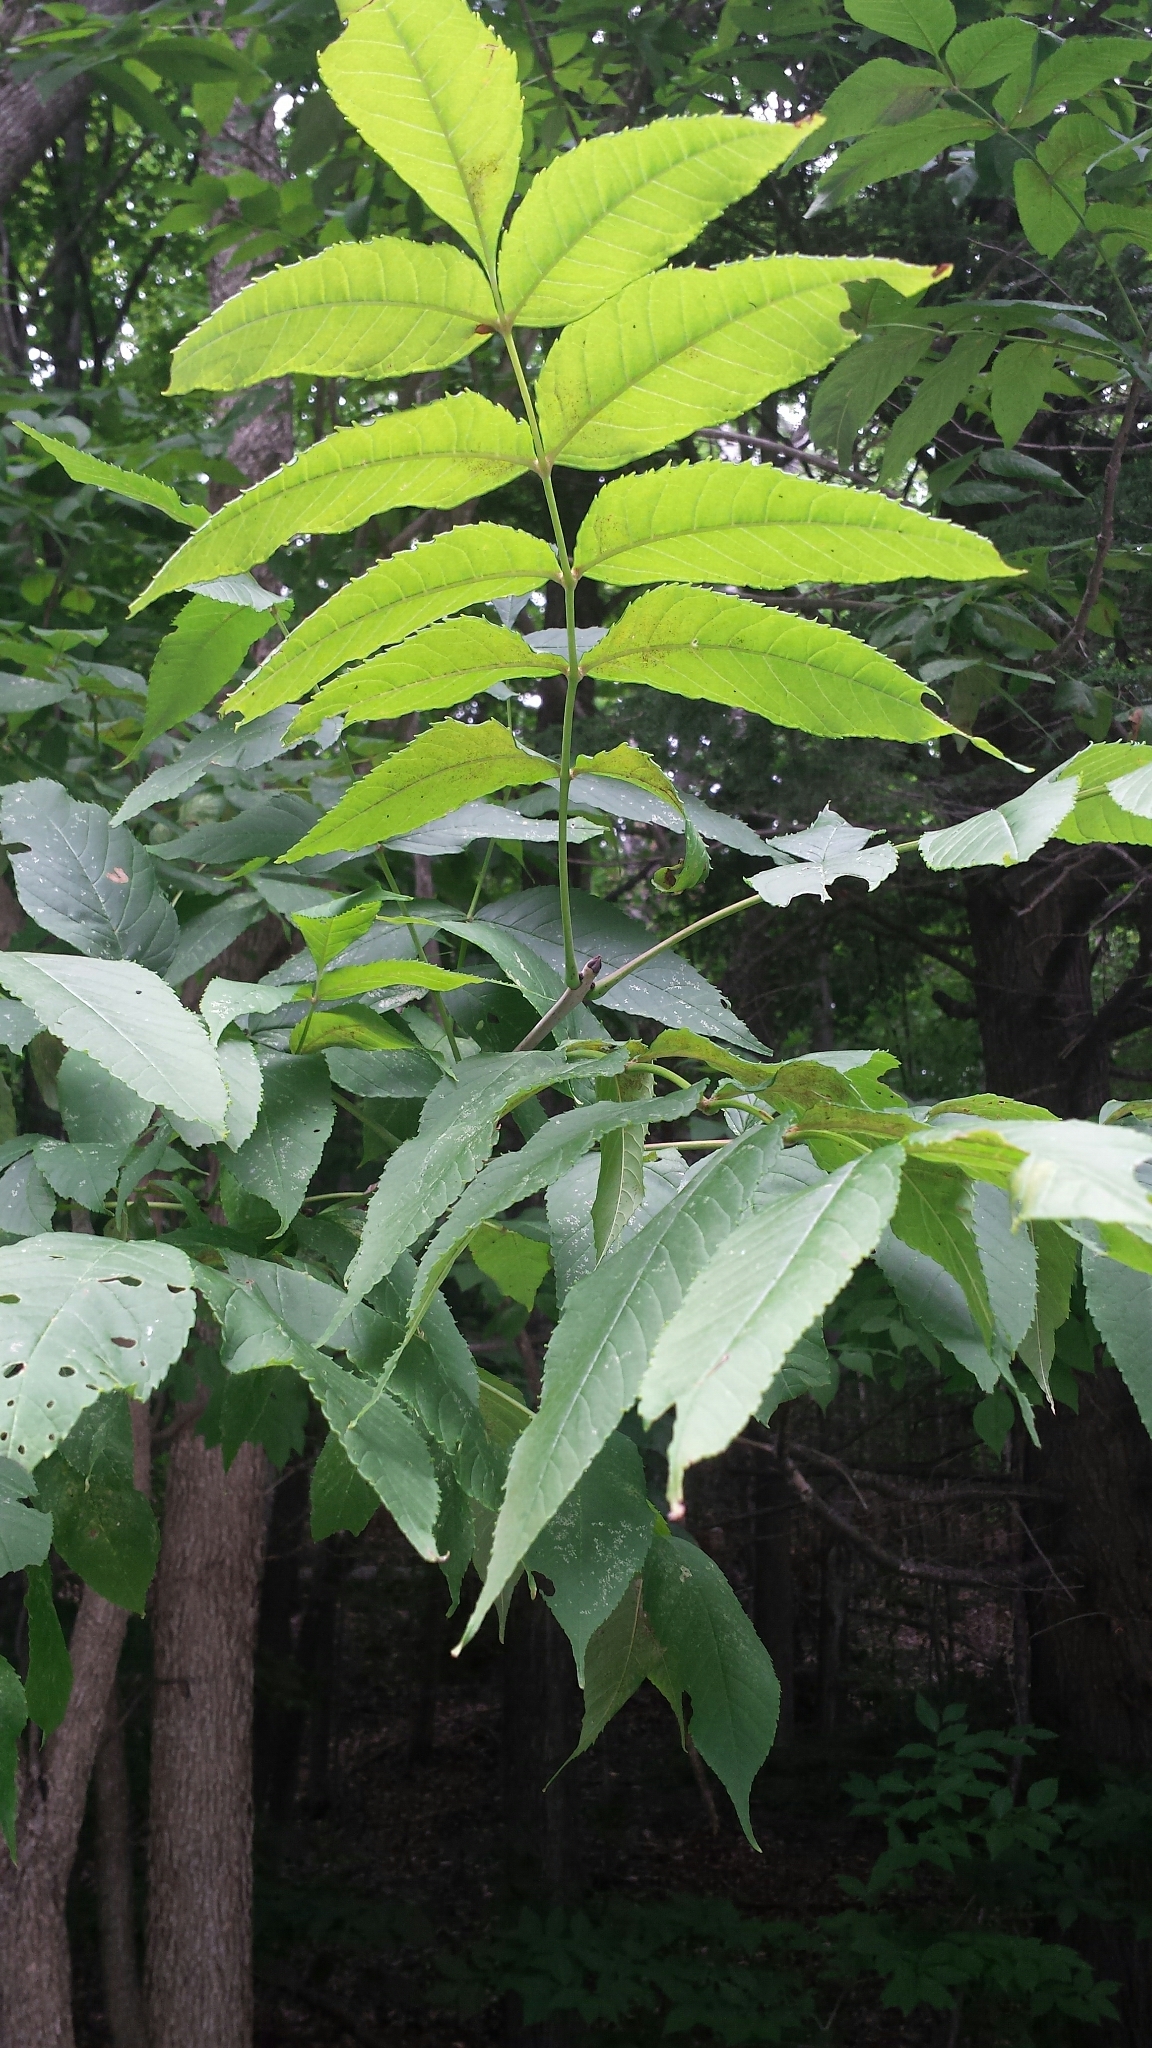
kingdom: Plantae
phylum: Tracheophyta
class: Magnoliopsida
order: Lamiales
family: Oleaceae
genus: Fraxinus
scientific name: Fraxinus nigra
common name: Black ash
